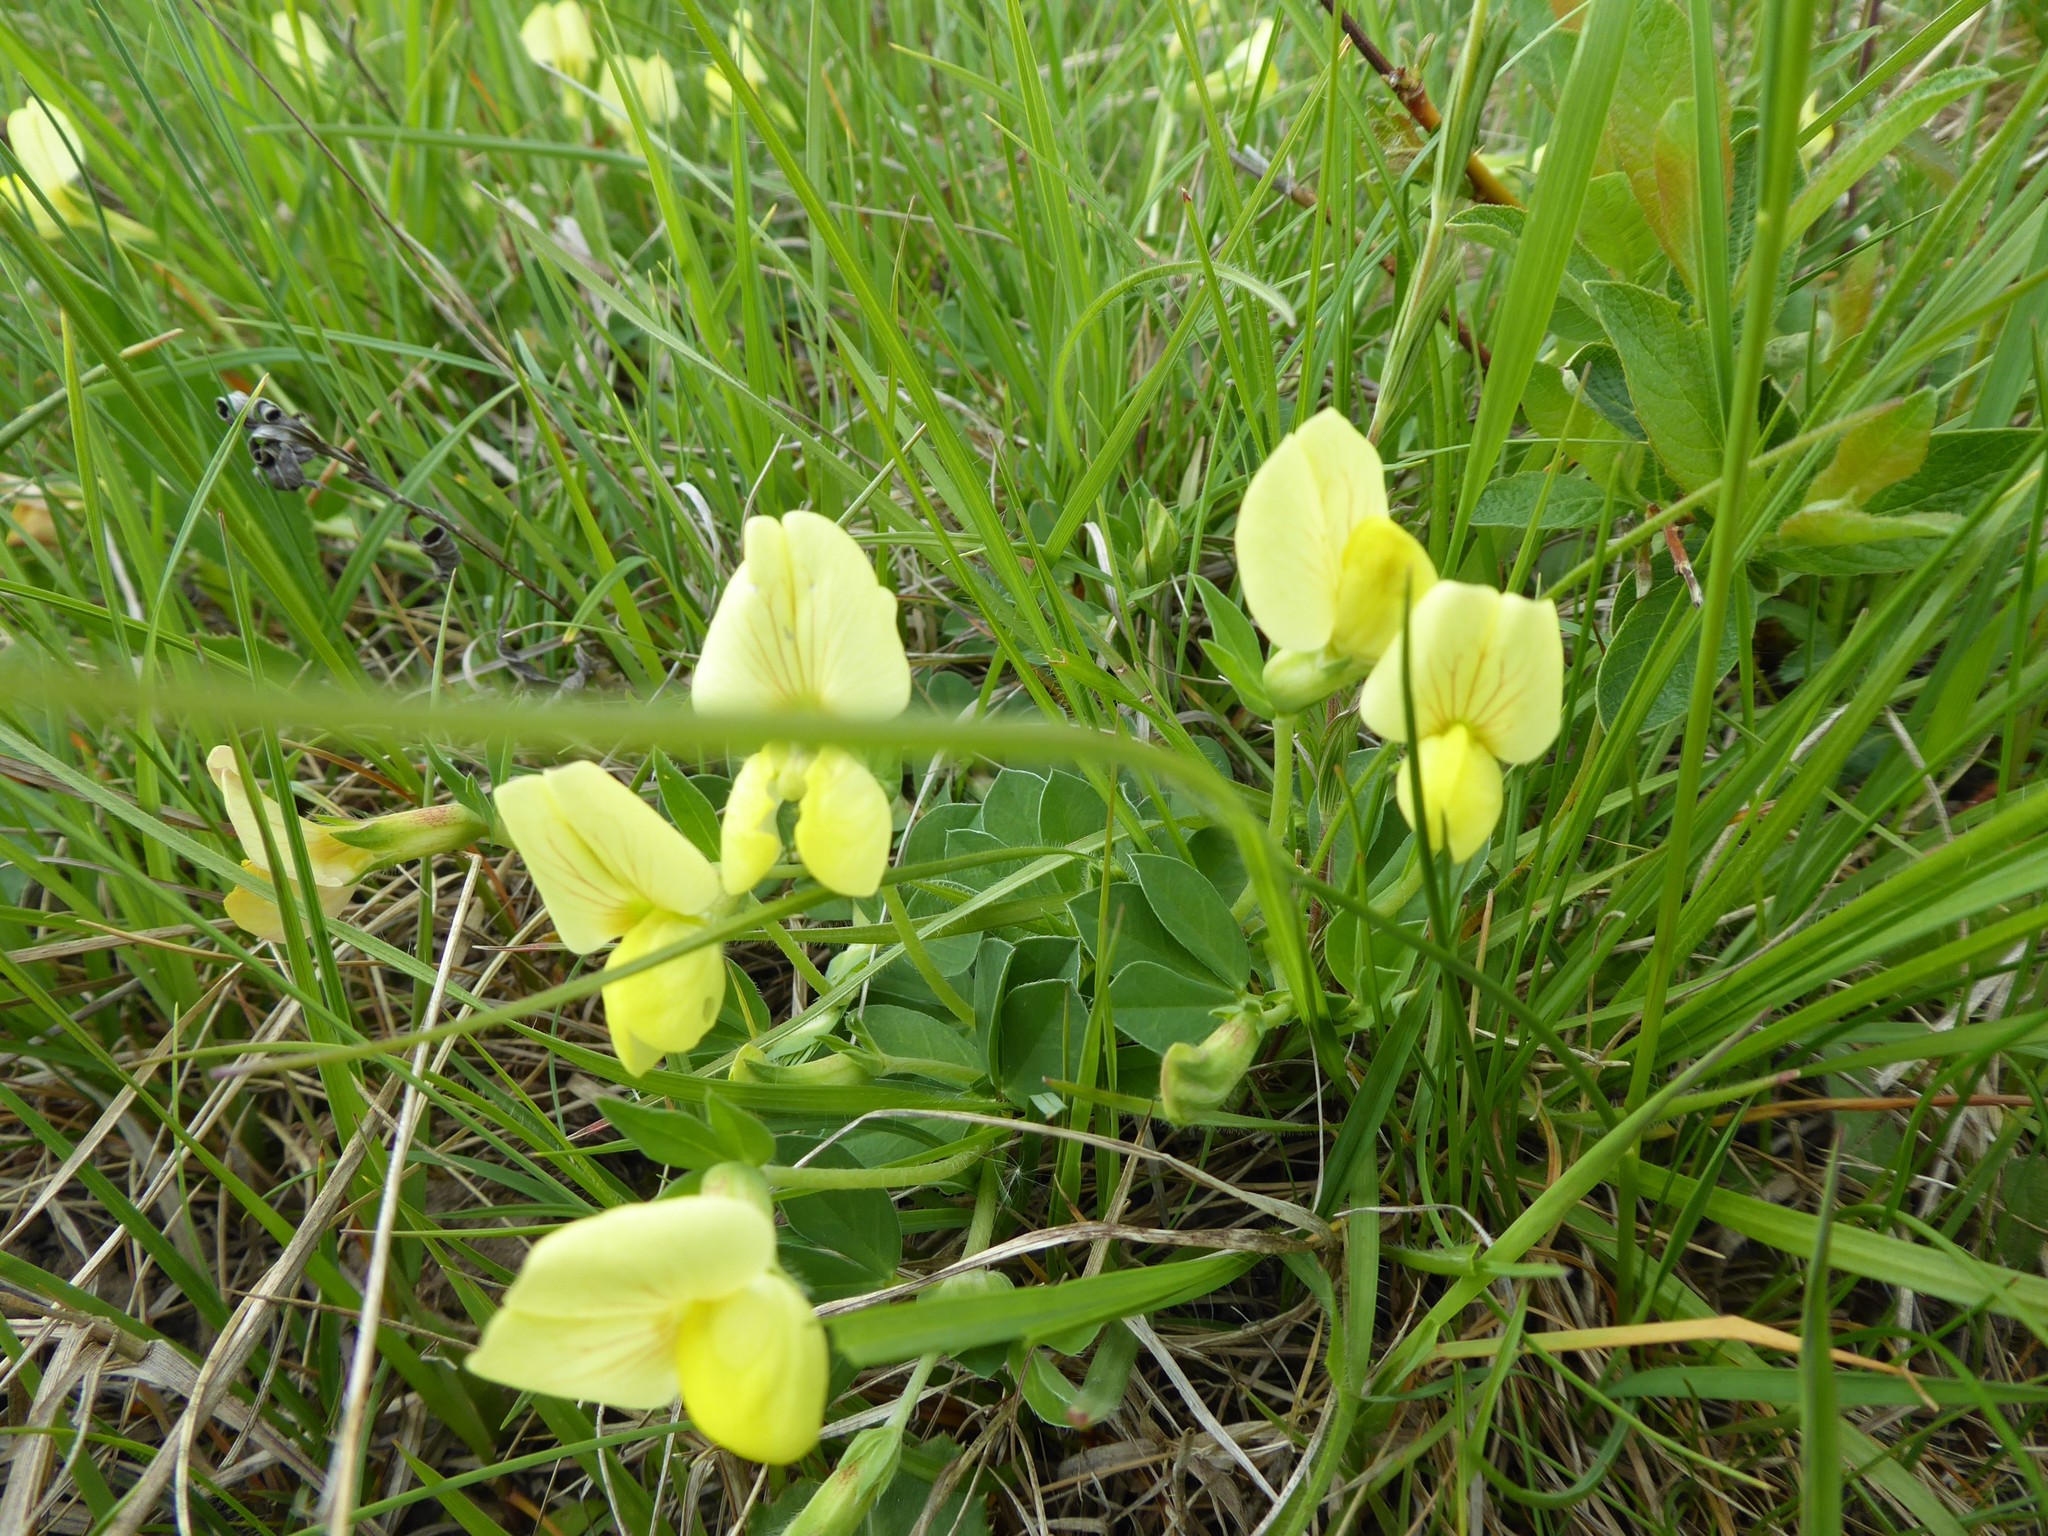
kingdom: Plantae
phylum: Tracheophyta
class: Magnoliopsida
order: Fabales
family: Fabaceae
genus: Lotus
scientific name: Lotus maritimus
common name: Dragon's-teeth
